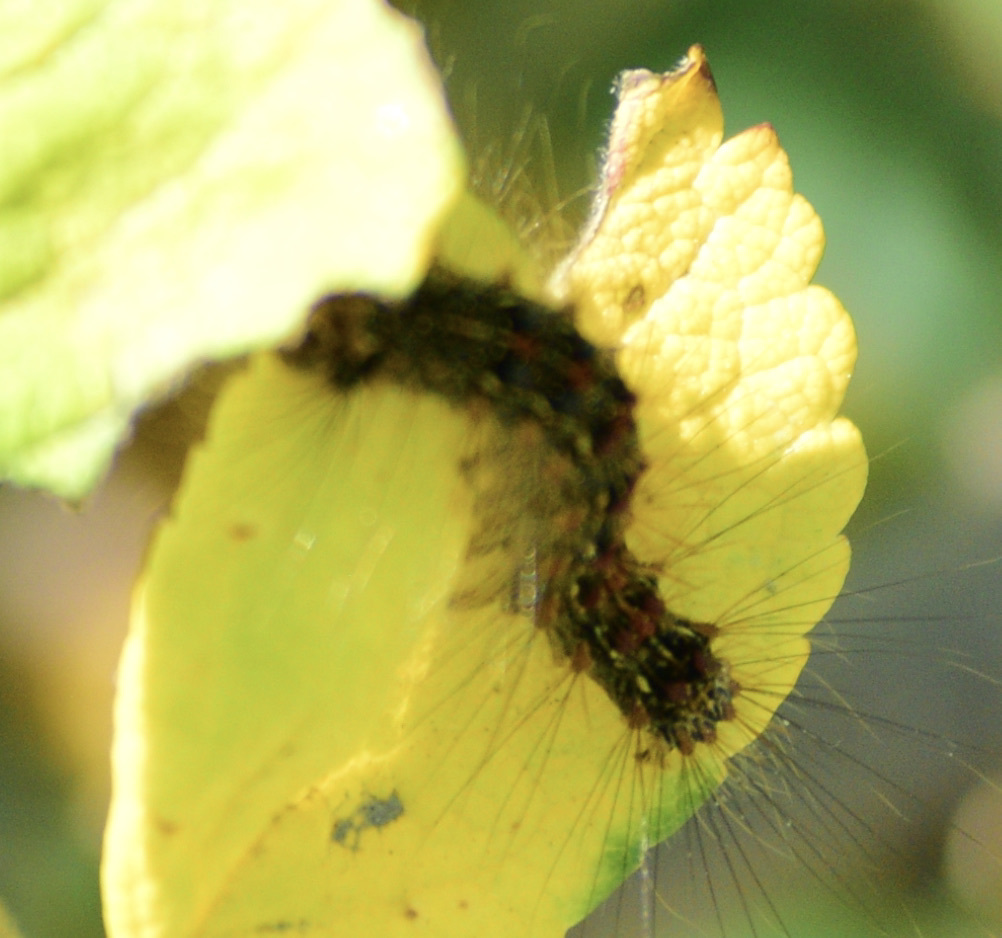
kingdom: Animalia
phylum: Arthropoda
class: Insecta
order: Lepidoptera
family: Erebidae
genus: Lymantria
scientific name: Lymantria dispar
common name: Gypsy moth
